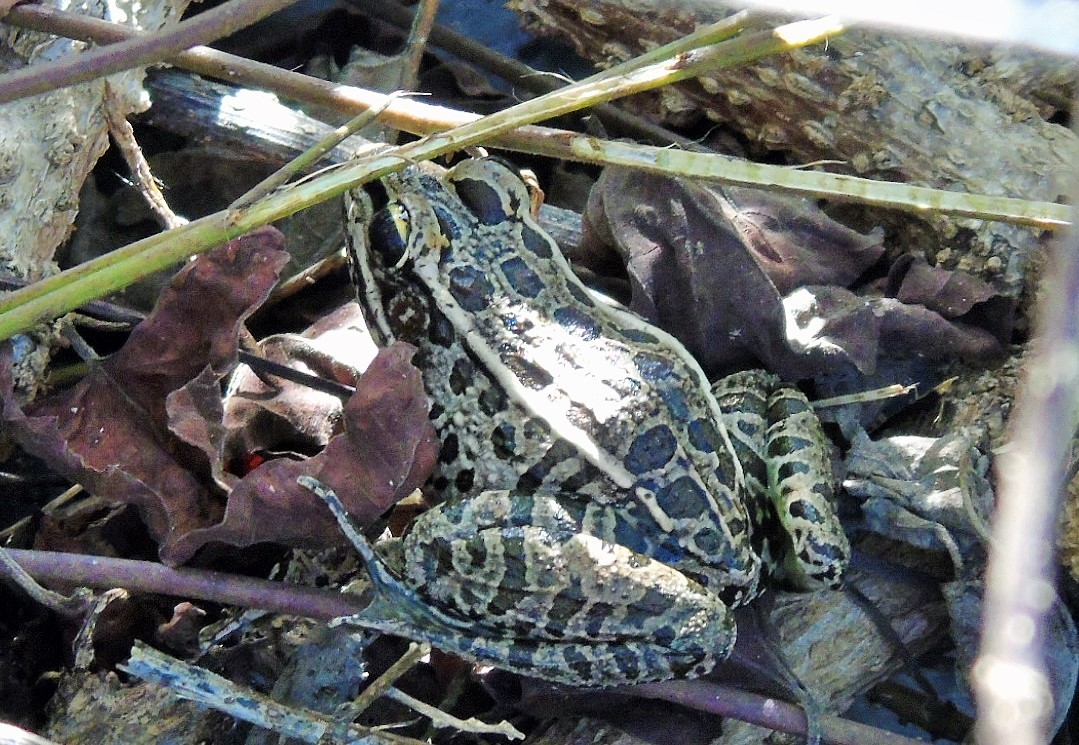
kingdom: Animalia
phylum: Chordata
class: Amphibia
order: Anura
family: Ranidae
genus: Lithobates
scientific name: Lithobates magnaocularis
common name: Northwest mexico leopard frog
